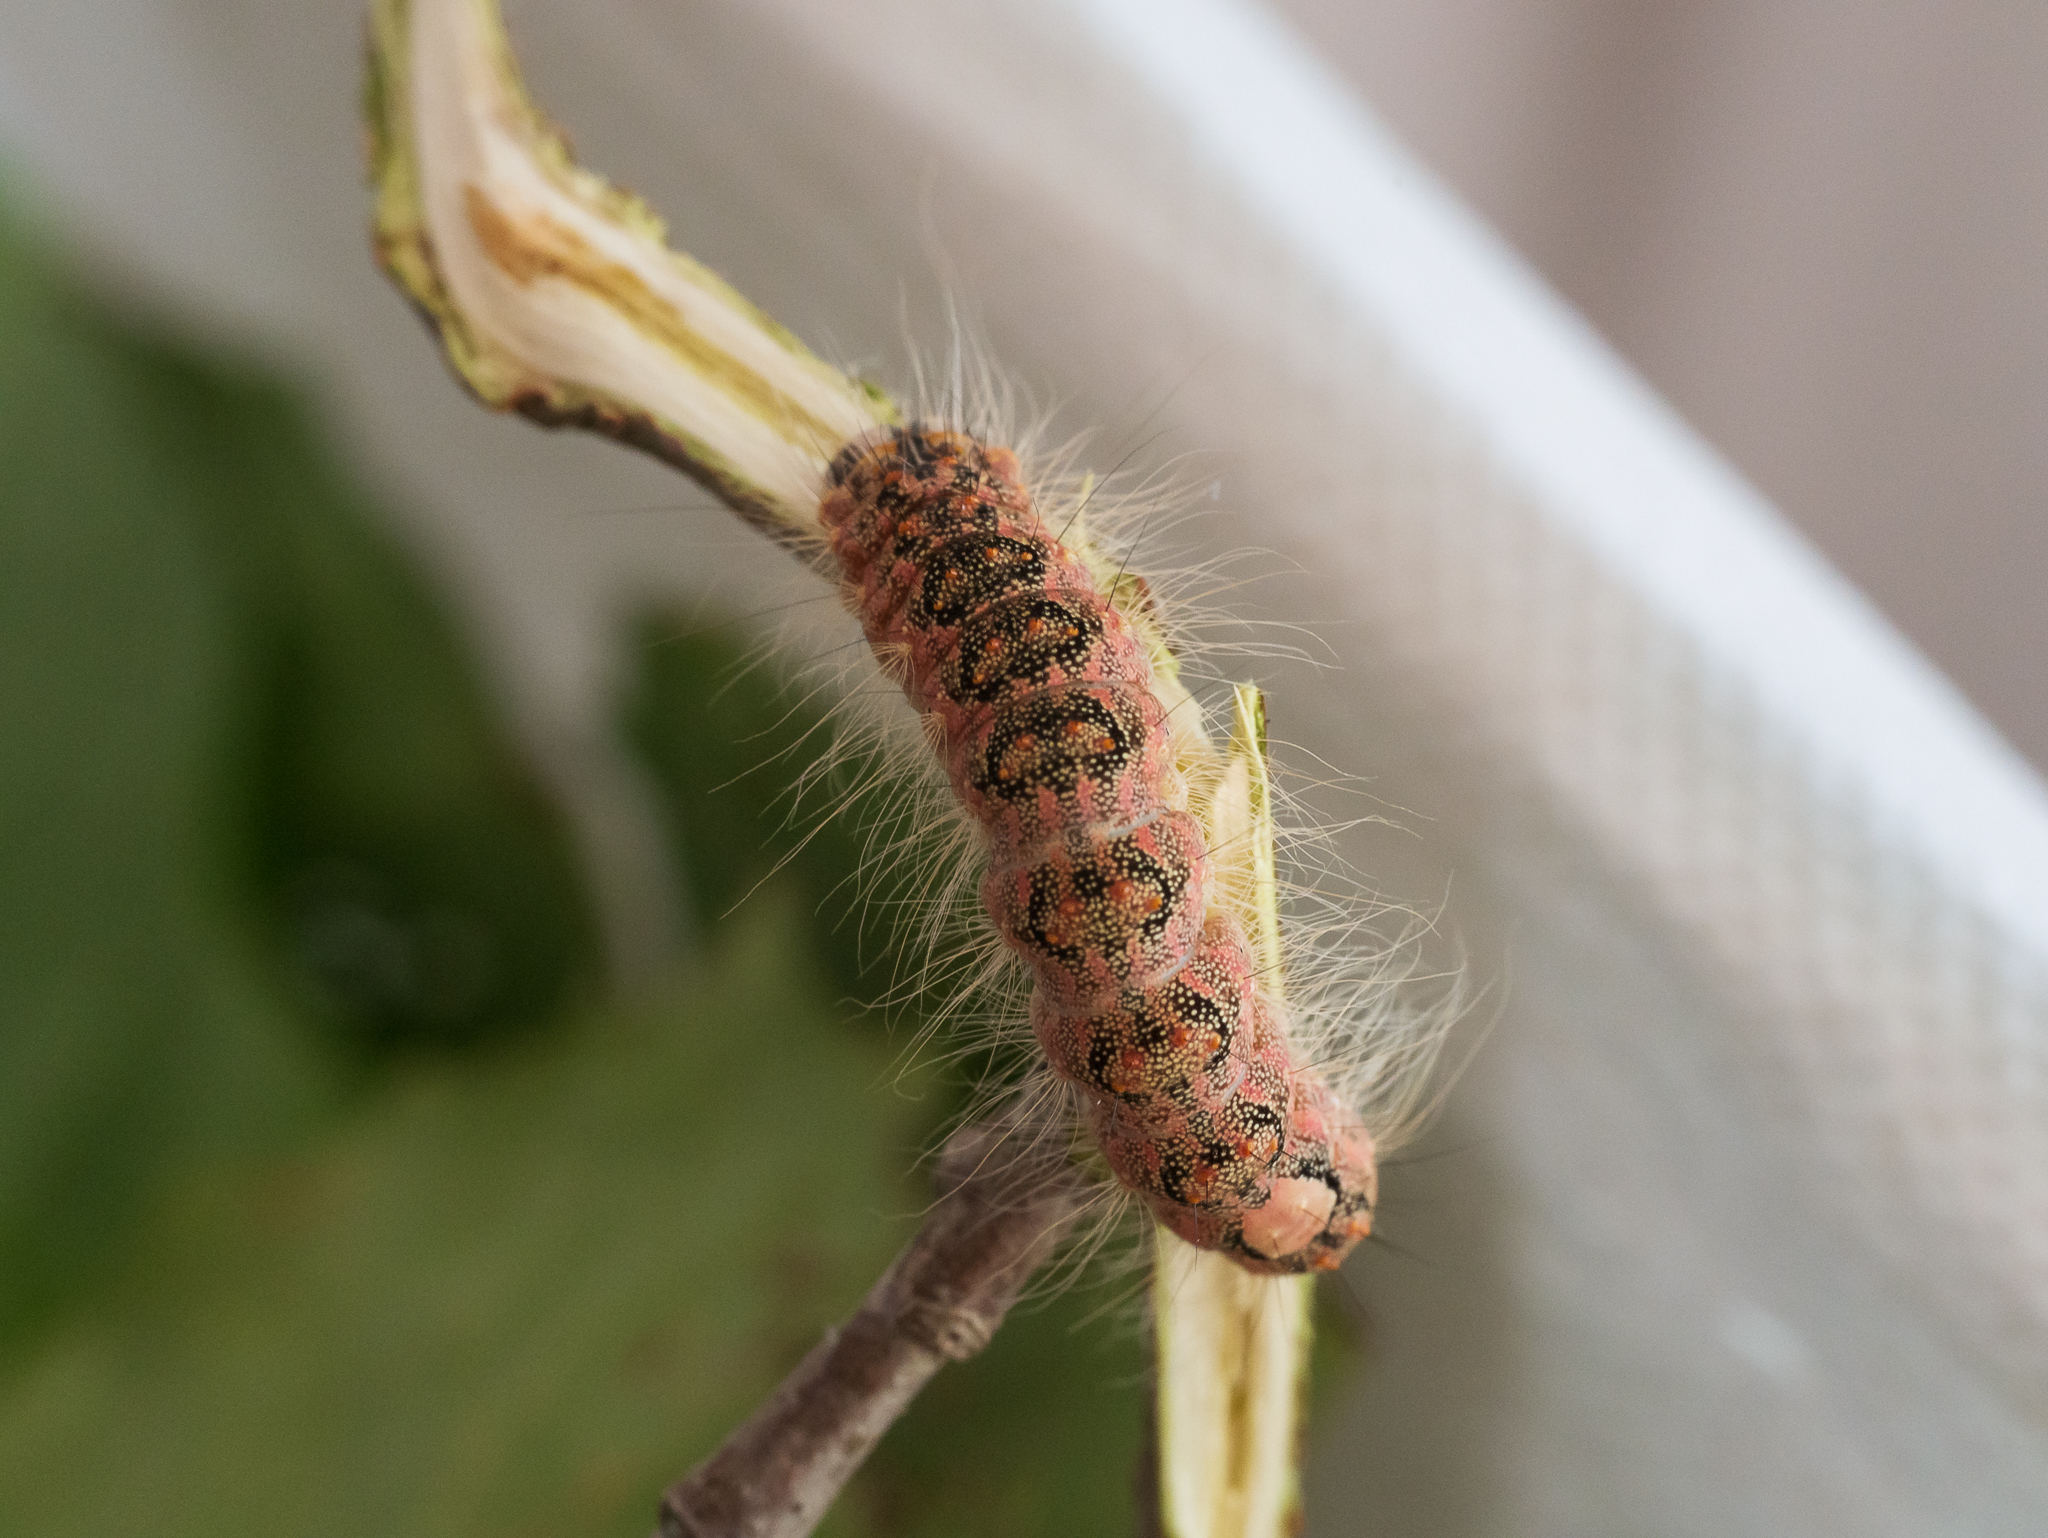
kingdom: Animalia
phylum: Arthropoda
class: Insecta
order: Lepidoptera
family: Noctuidae
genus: Acronicta
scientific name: Acronicta megacephala
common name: Poplar grey
